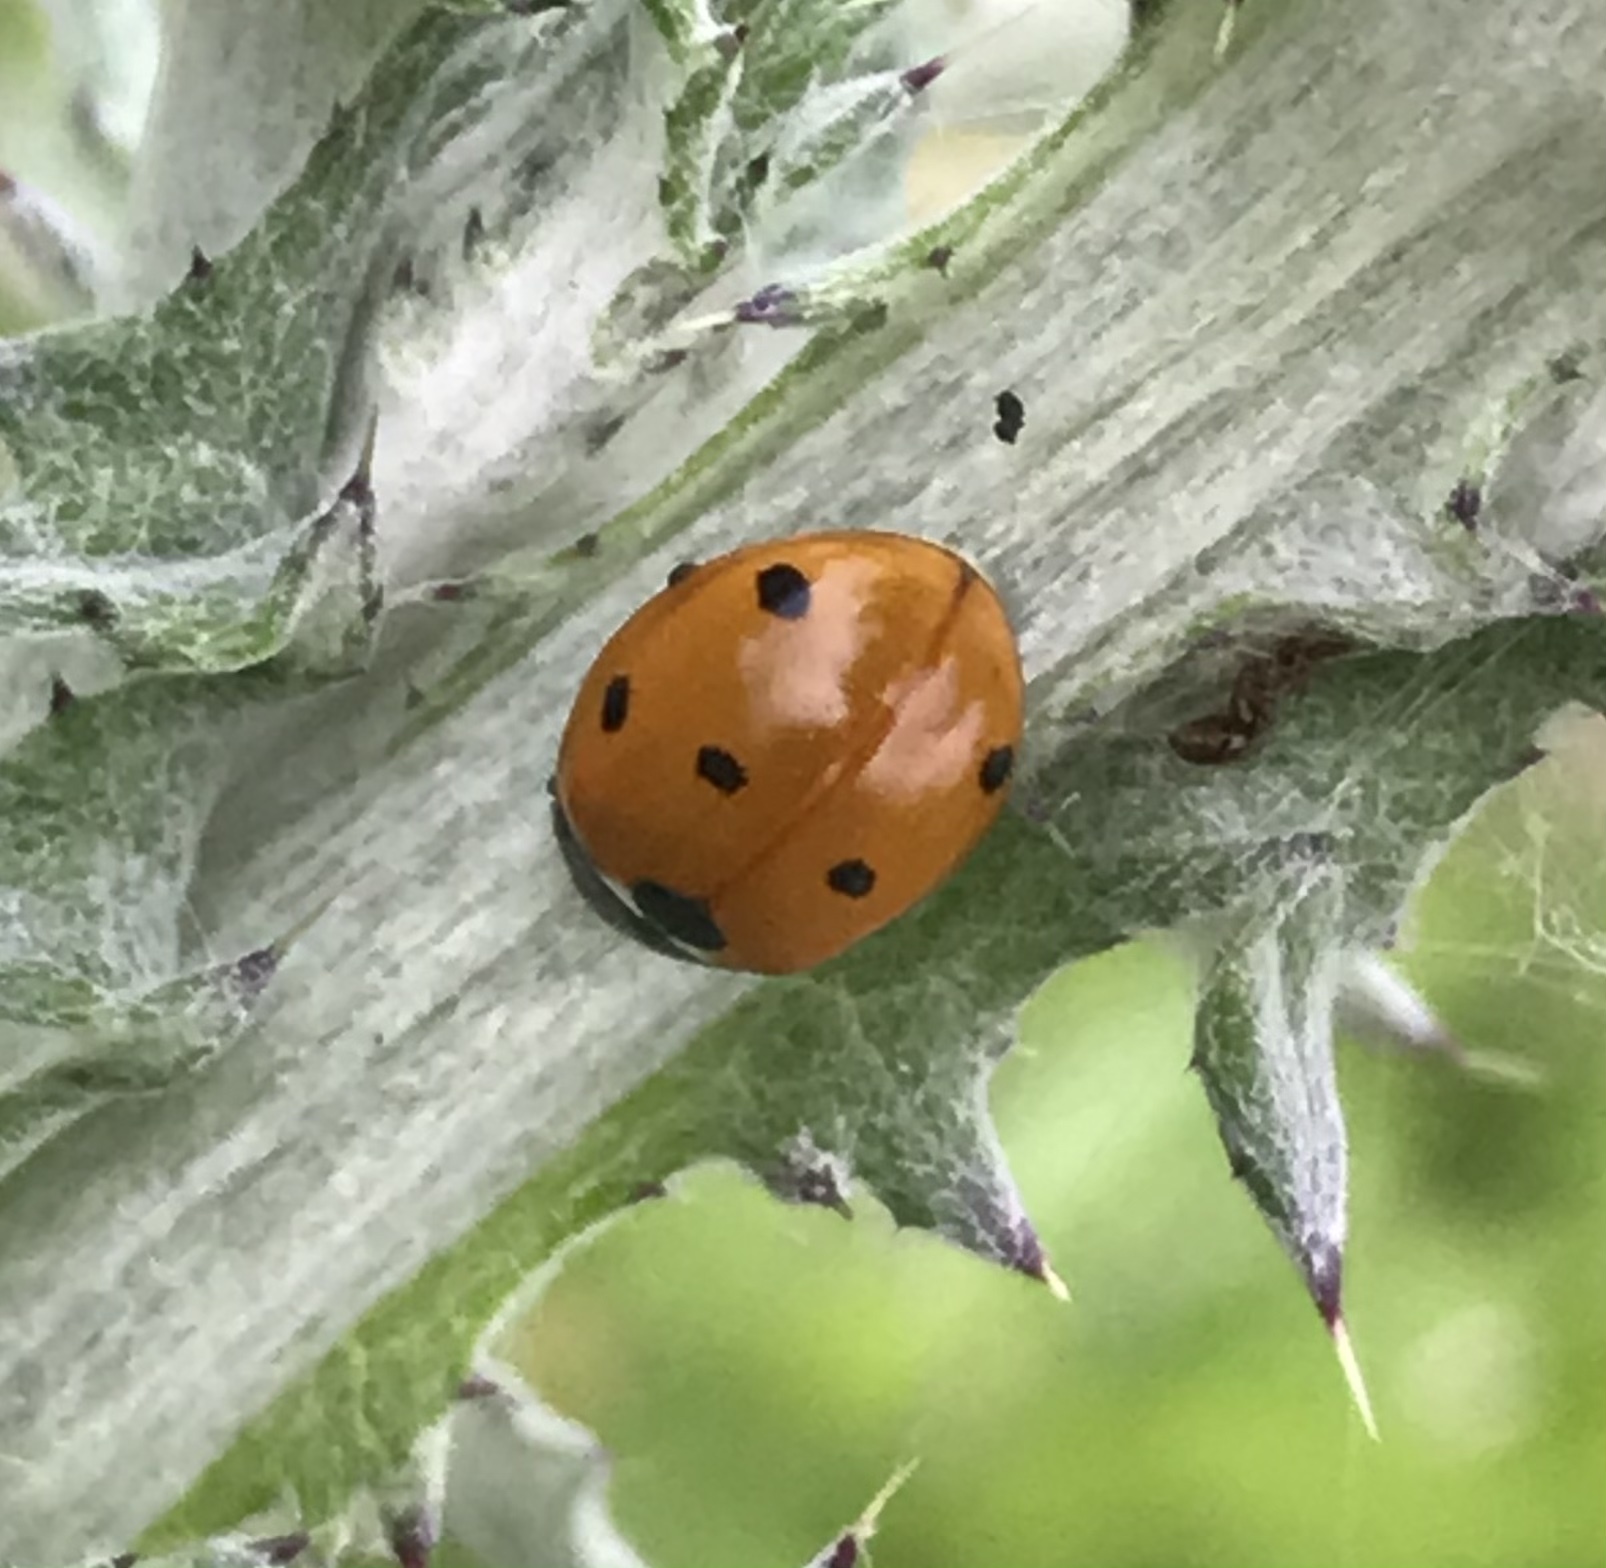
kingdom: Animalia
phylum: Arthropoda
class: Insecta
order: Coleoptera
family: Coccinellidae
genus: Coccinella
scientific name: Coccinella septempunctata
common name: Sevenspotted lady beetle
